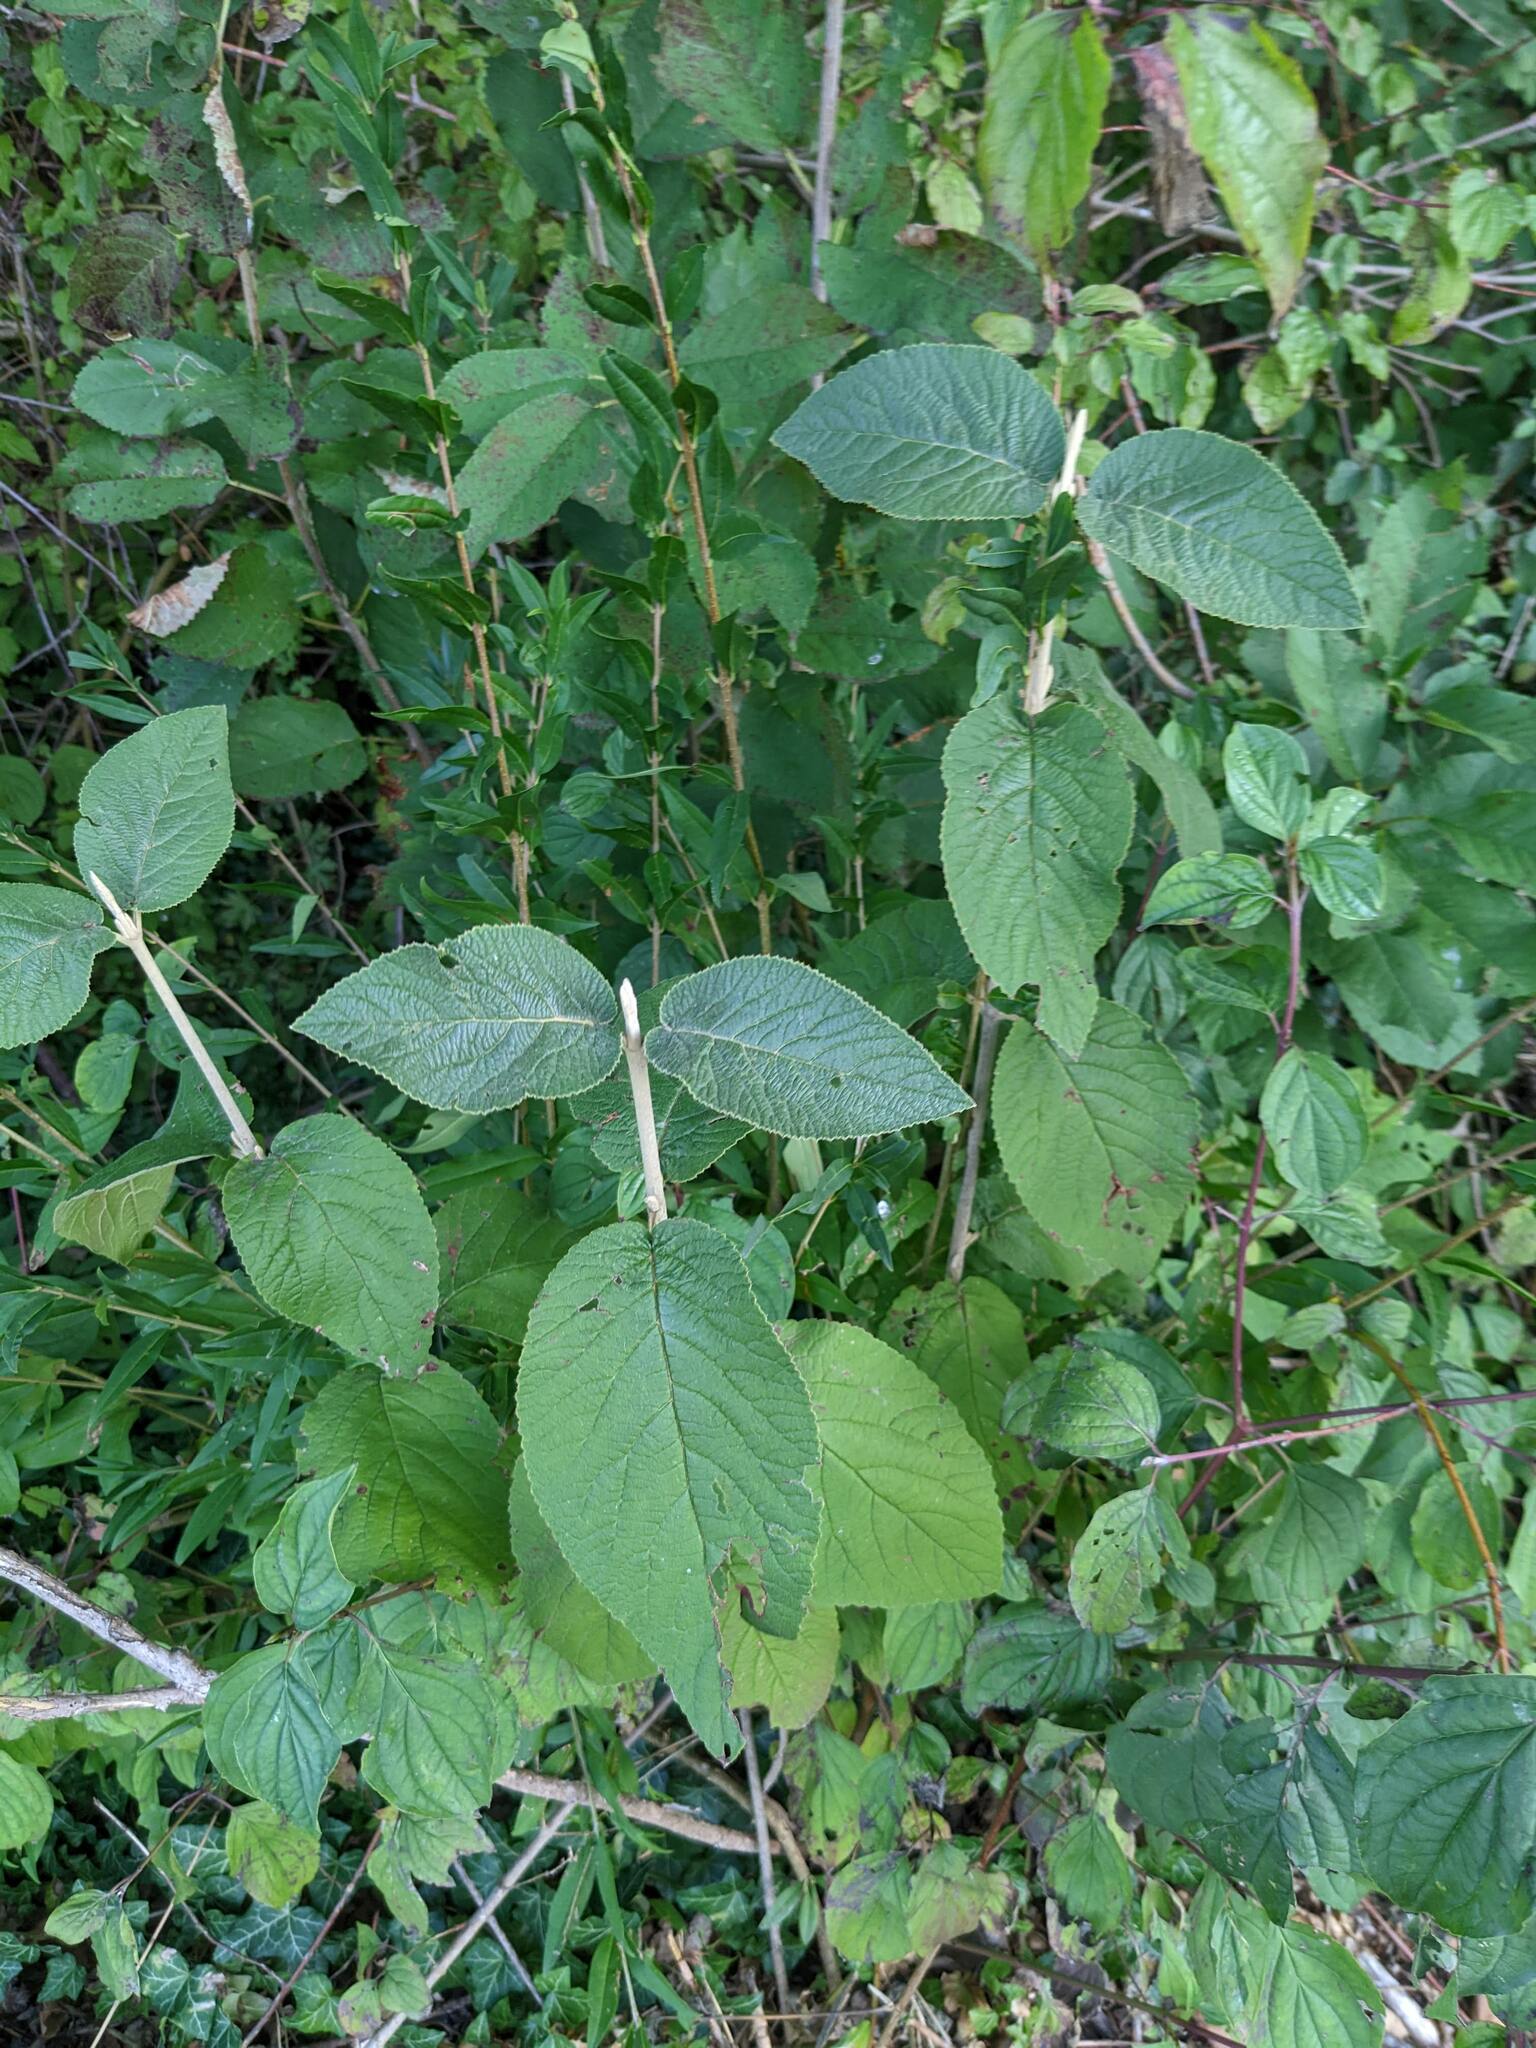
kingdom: Plantae
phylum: Tracheophyta
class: Magnoliopsida
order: Dipsacales
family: Viburnaceae
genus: Viburnum
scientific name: Viburnum lantana
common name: Wayfaring tree
